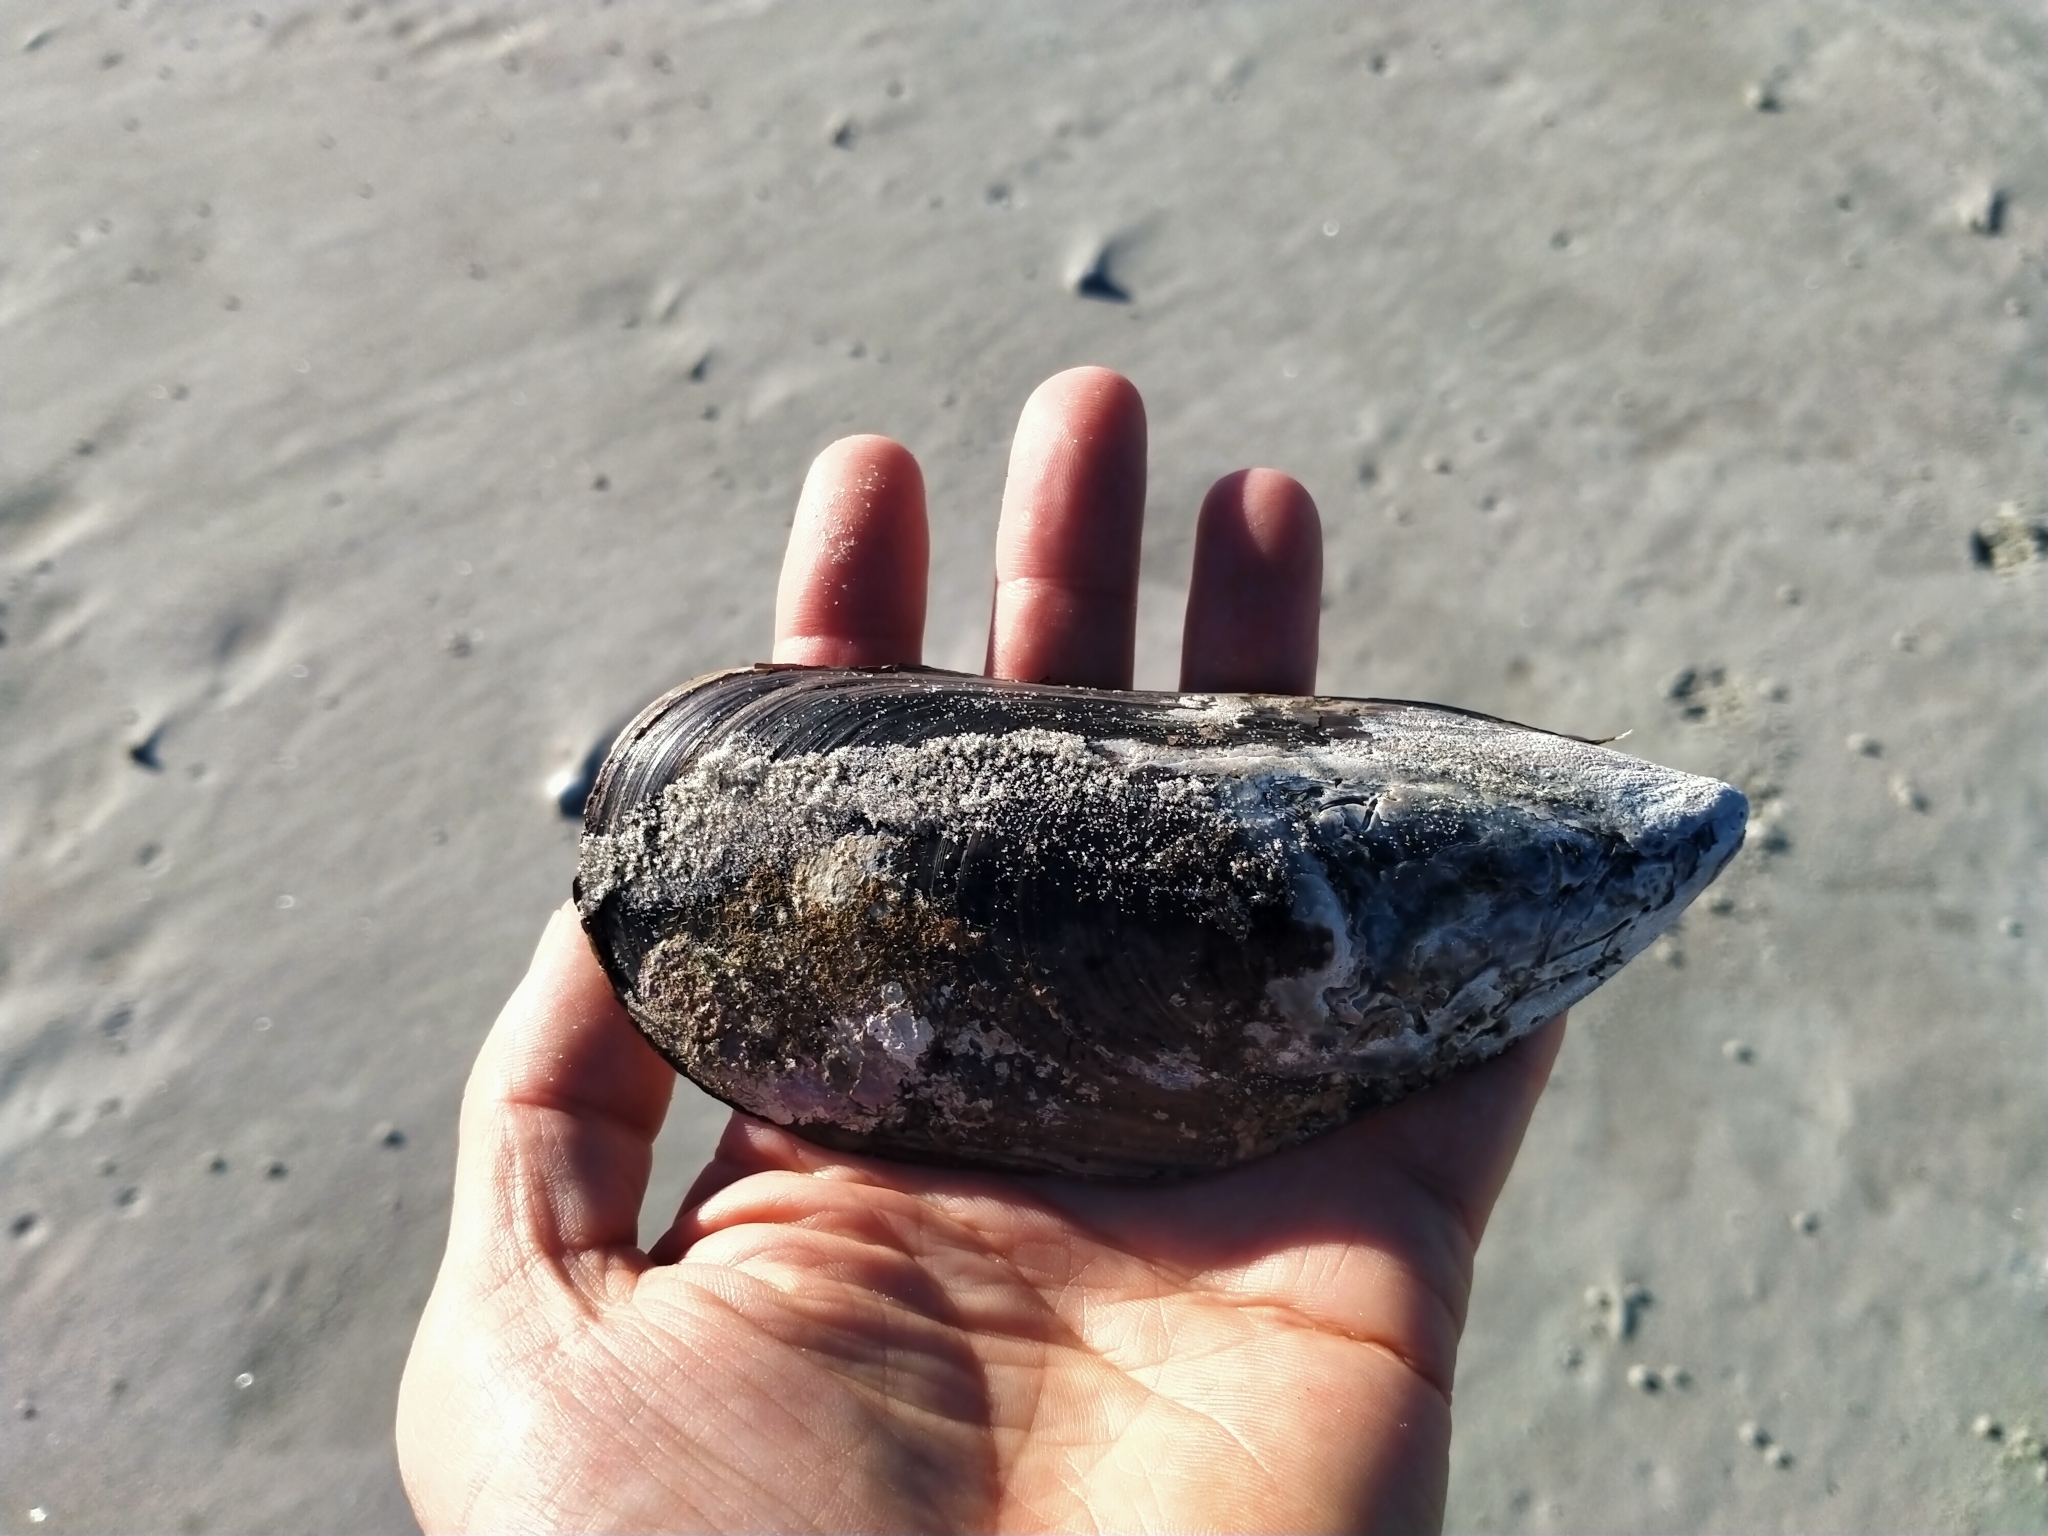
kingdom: Animalia
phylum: Mollusca
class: Bivalvia
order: Mytilida
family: Mytilidae
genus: Perna
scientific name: Perna canaliculus
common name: New zealand greenshelltm
